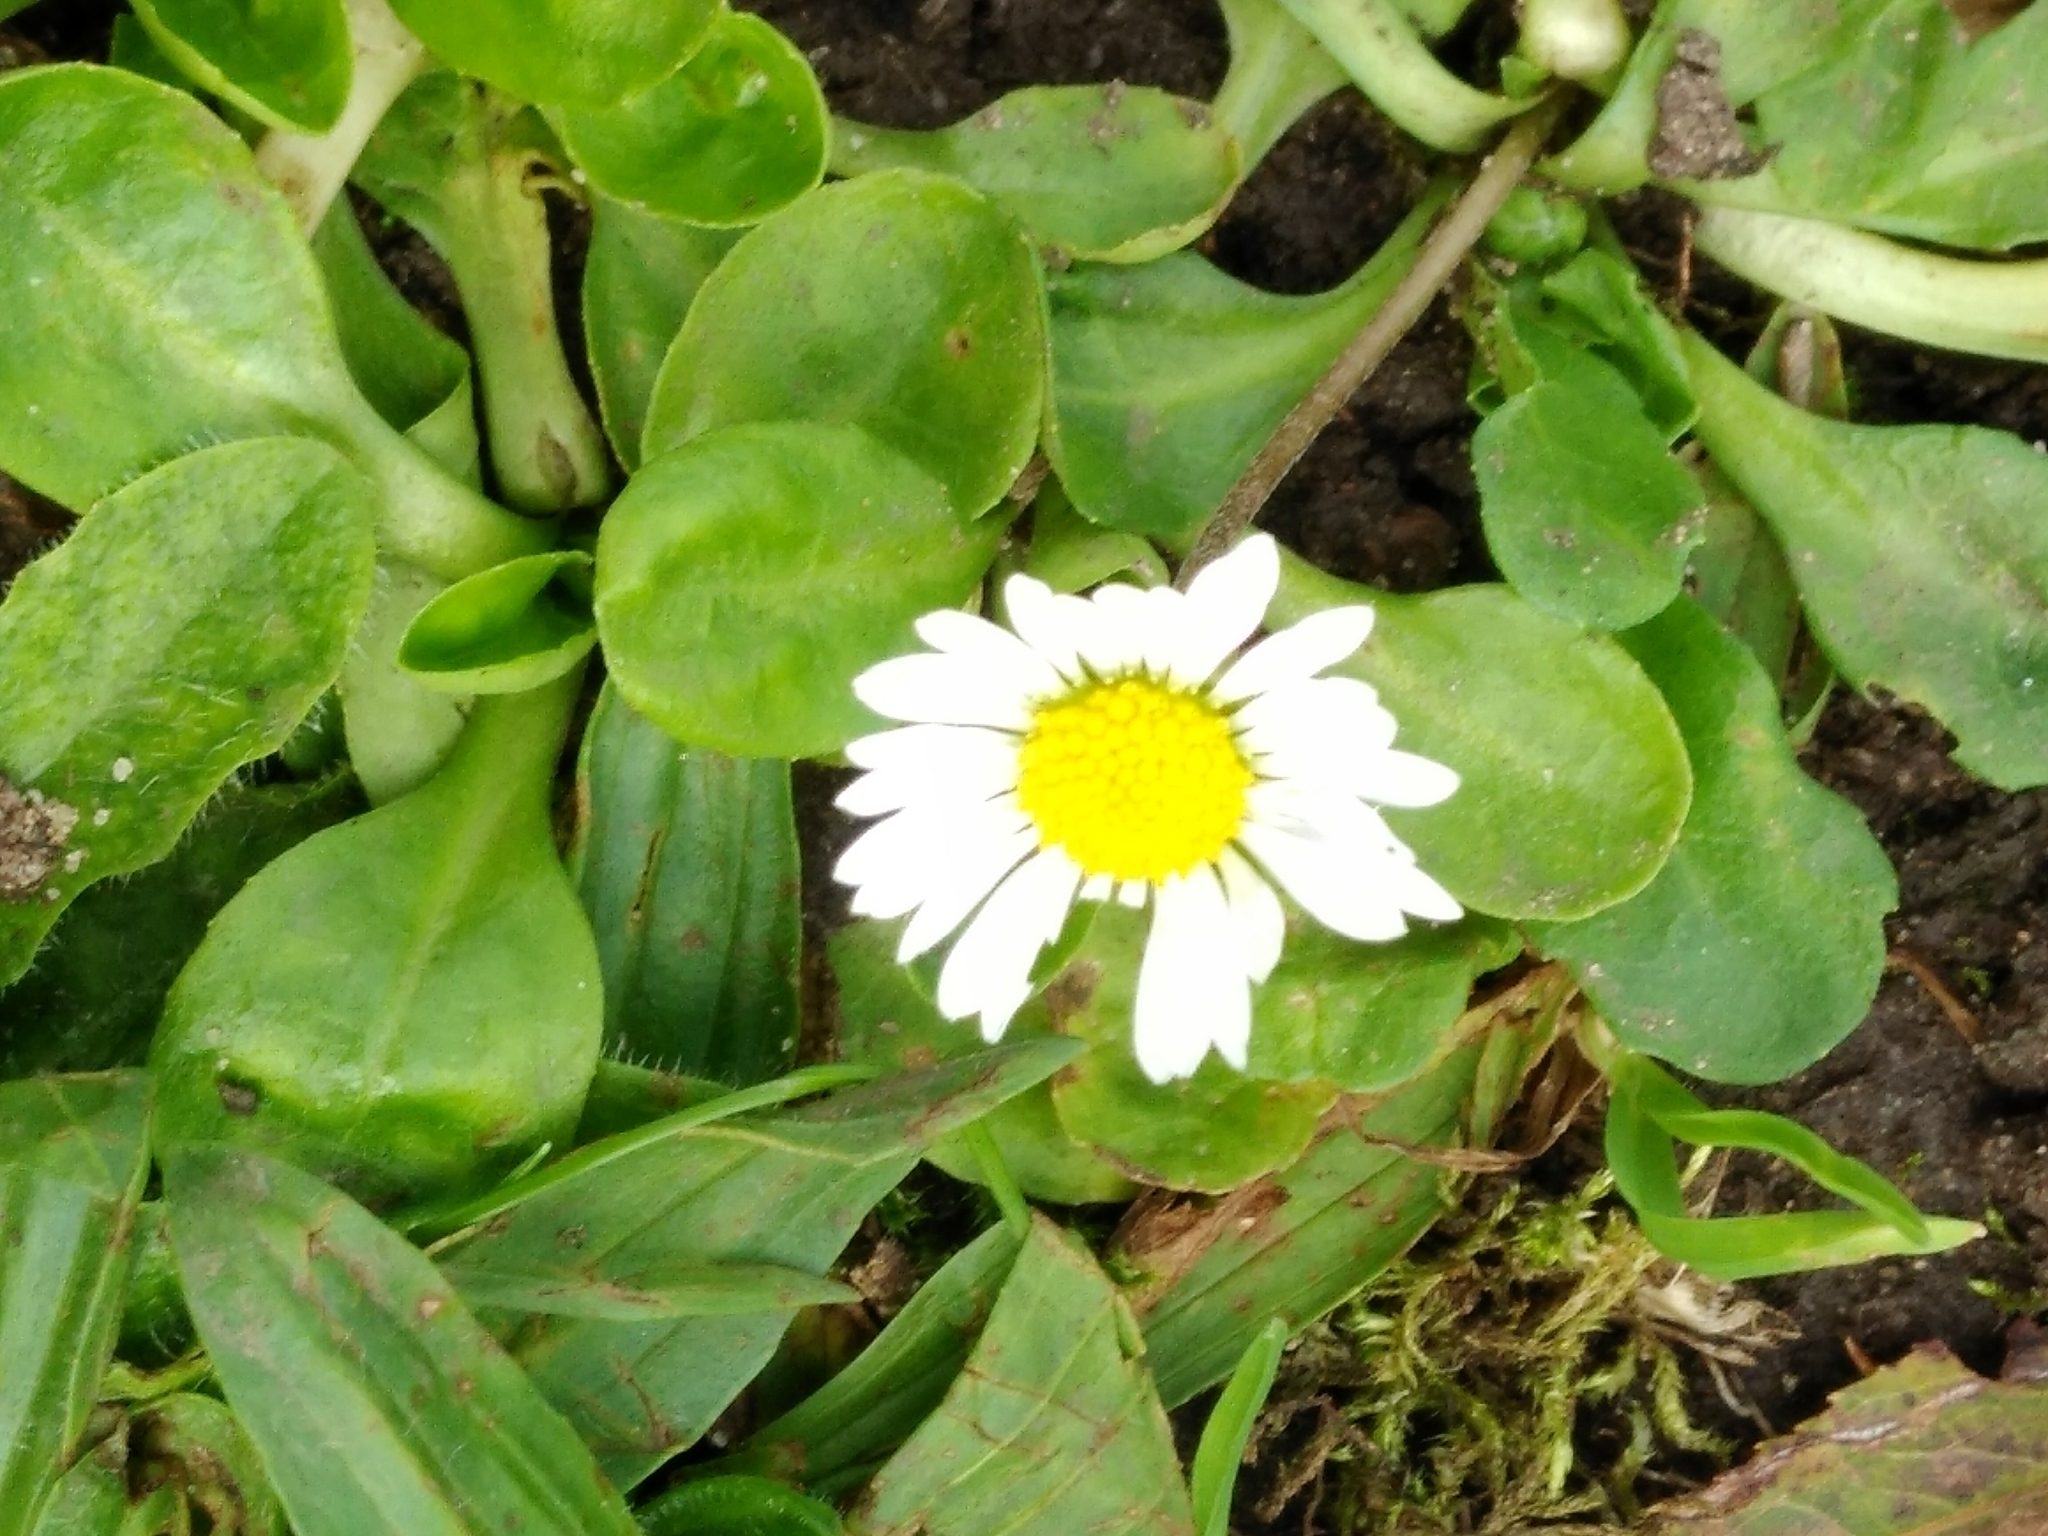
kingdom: Plantae
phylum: Tracheophyta
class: Magnoliopsida
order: Asterales
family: Asteraceae
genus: Bellis
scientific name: Bellis perennis
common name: Lawndaisy
